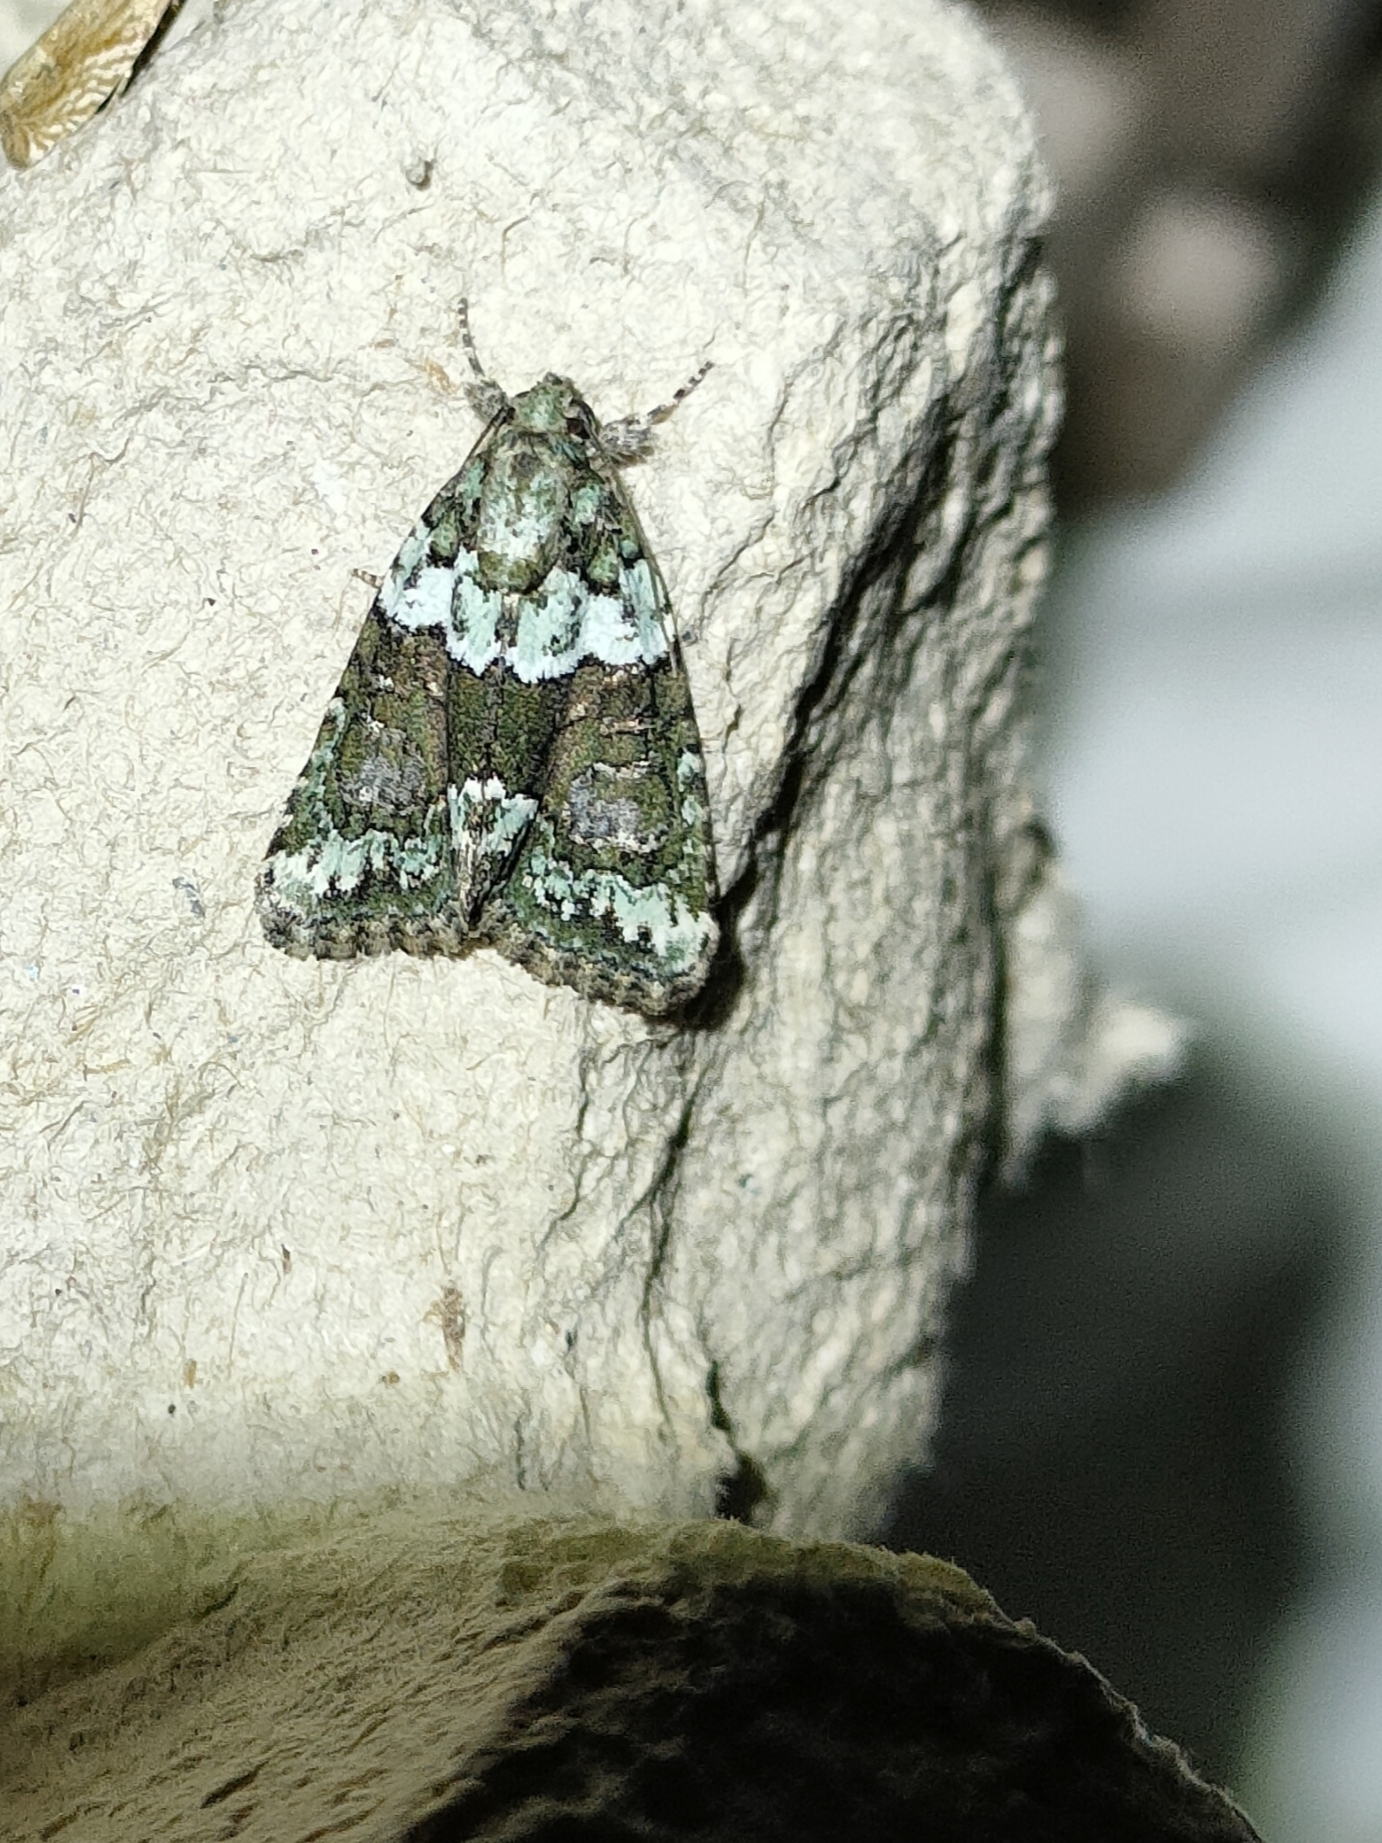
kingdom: Animalia
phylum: Arthropoda
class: Insecta
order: Lepidoptera
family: Noctuidae
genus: Cryphia
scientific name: Cryphia algae
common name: Tree-lichen beauty
